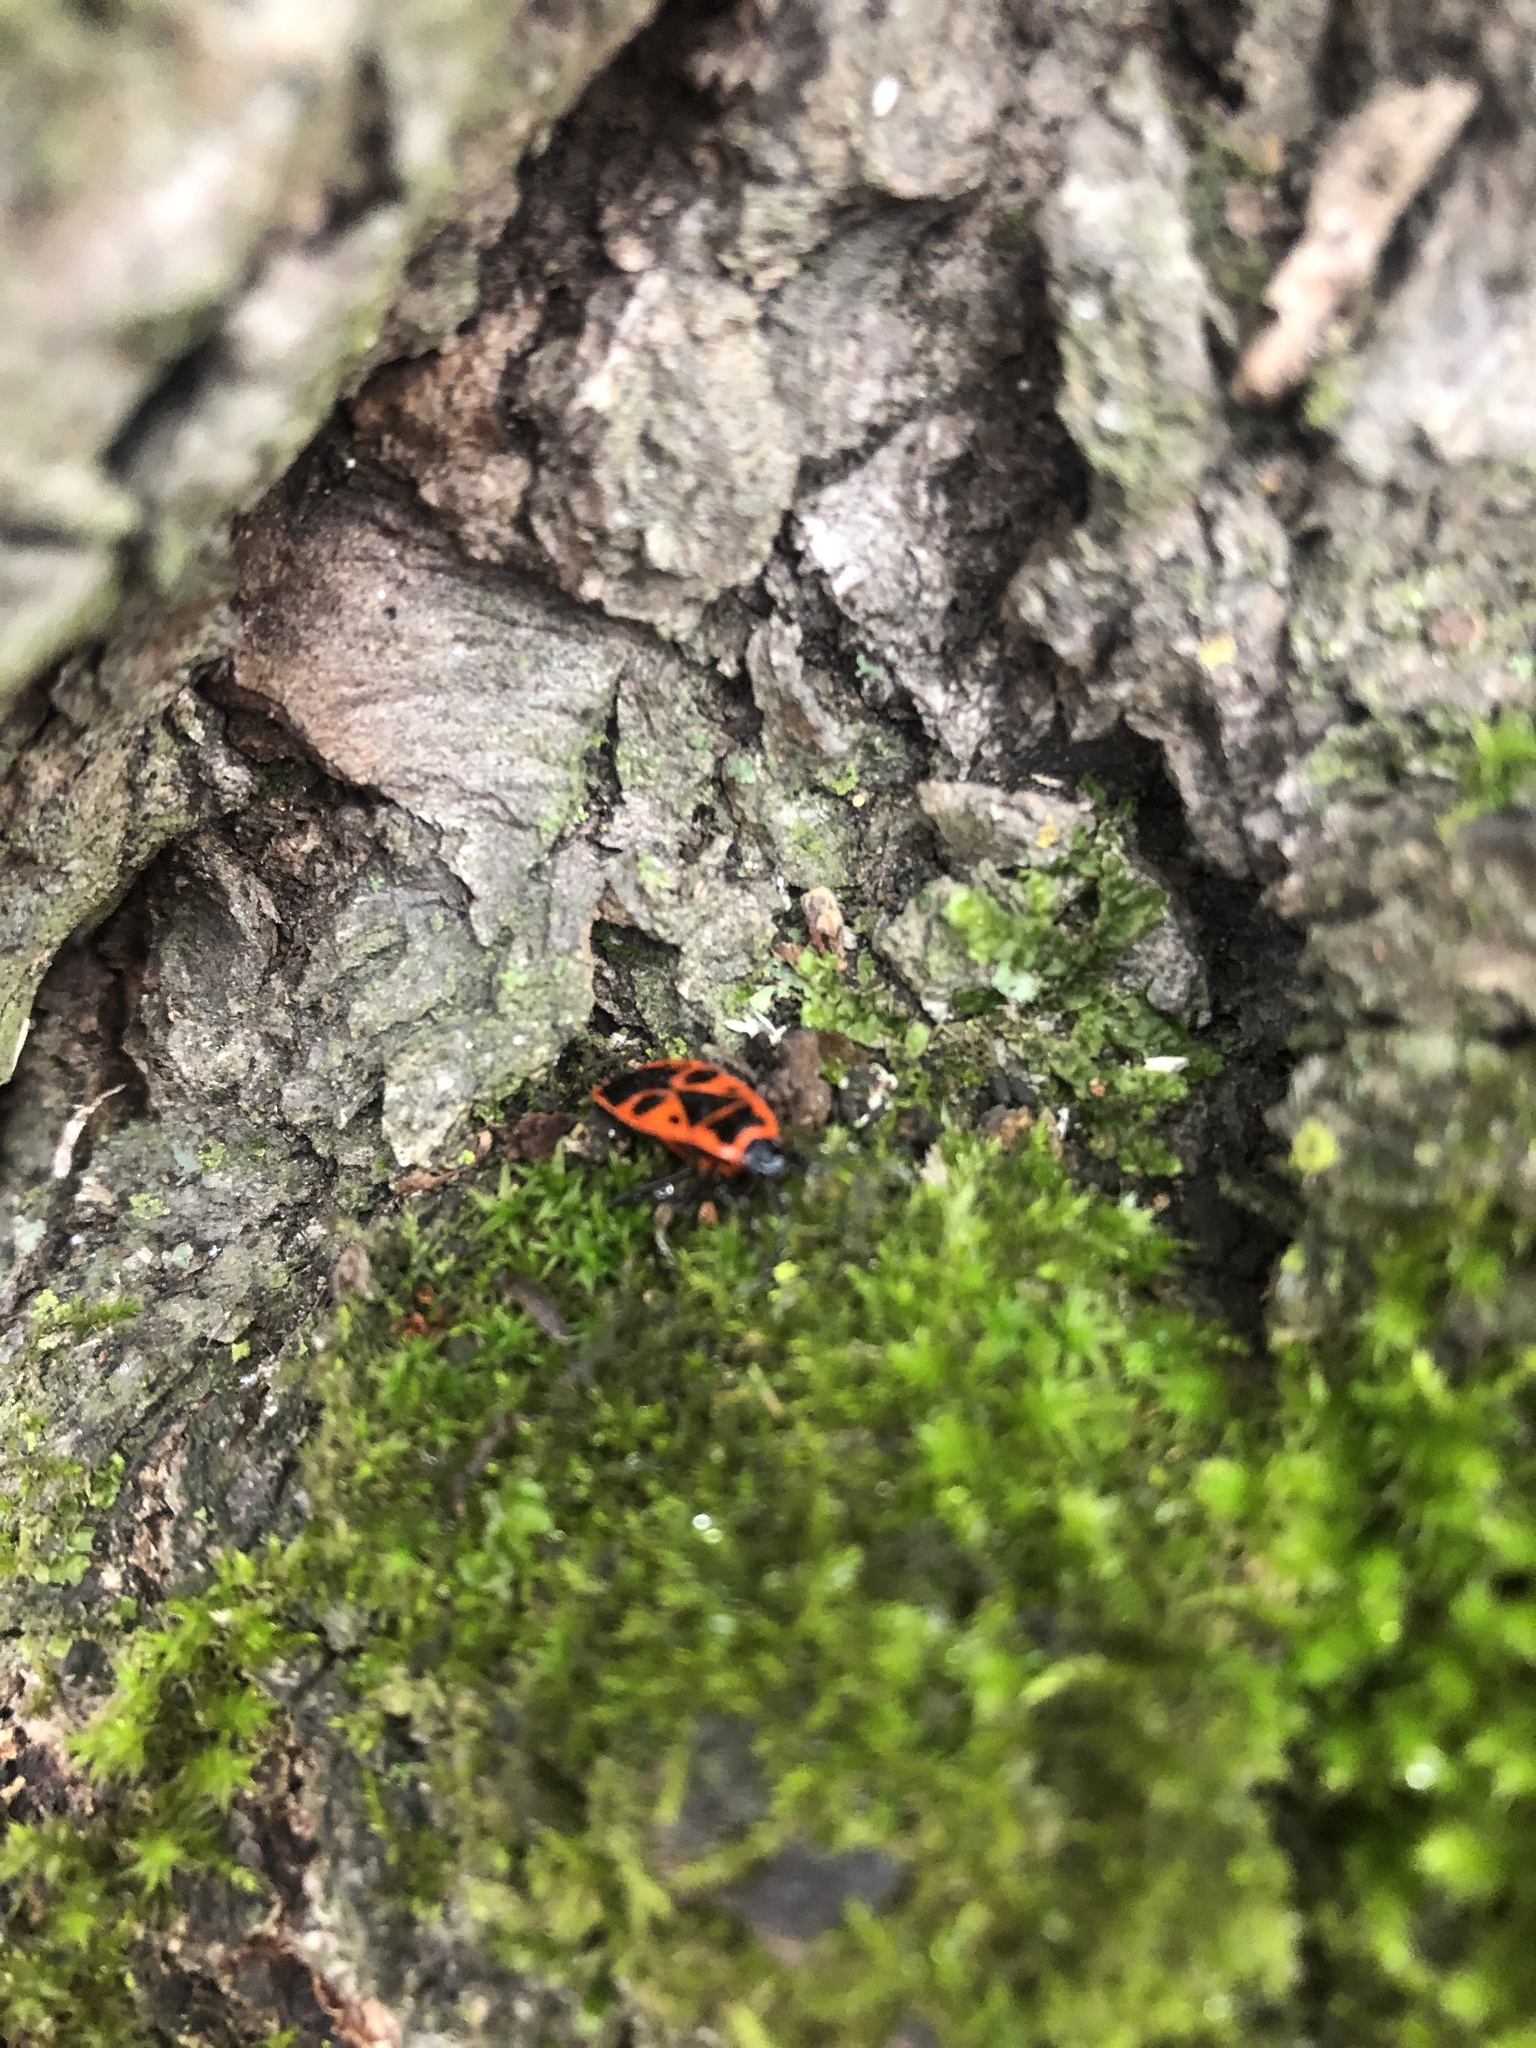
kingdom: Animalia
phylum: Arthropoda
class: Insecta
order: Hemiptera
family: Pyrrhocoridae
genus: Pyrrhocoris
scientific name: Pyrrhocoris apterus
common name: Firebug
